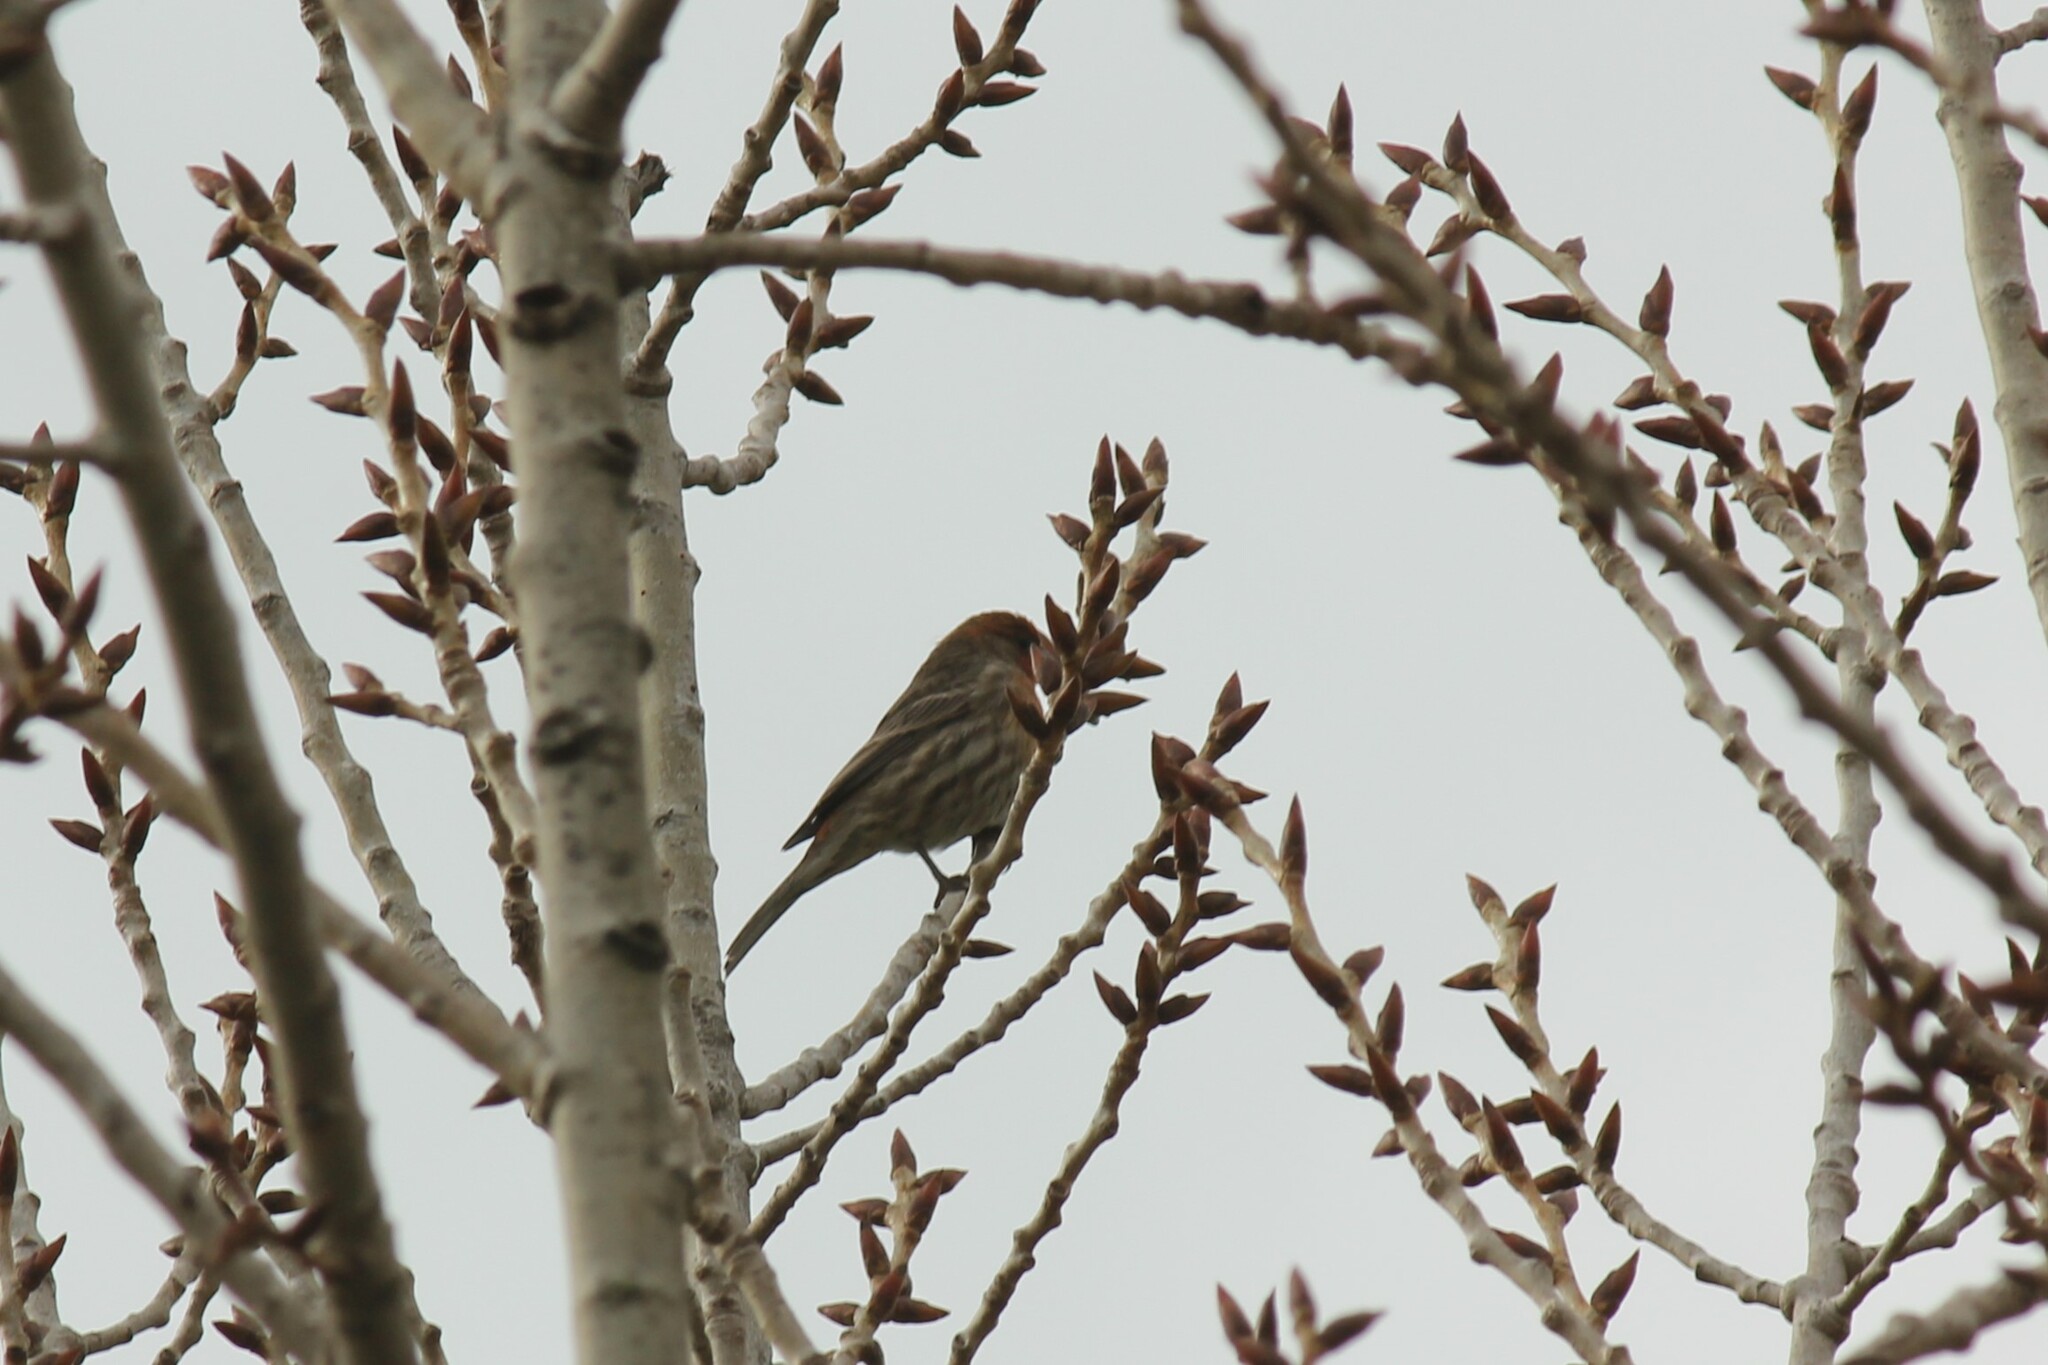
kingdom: Animalia
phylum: Chordata
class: Aves
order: Passeriformes
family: Fringillidae
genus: Haemorhous
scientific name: Haemorhous mexicanus
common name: House finch
